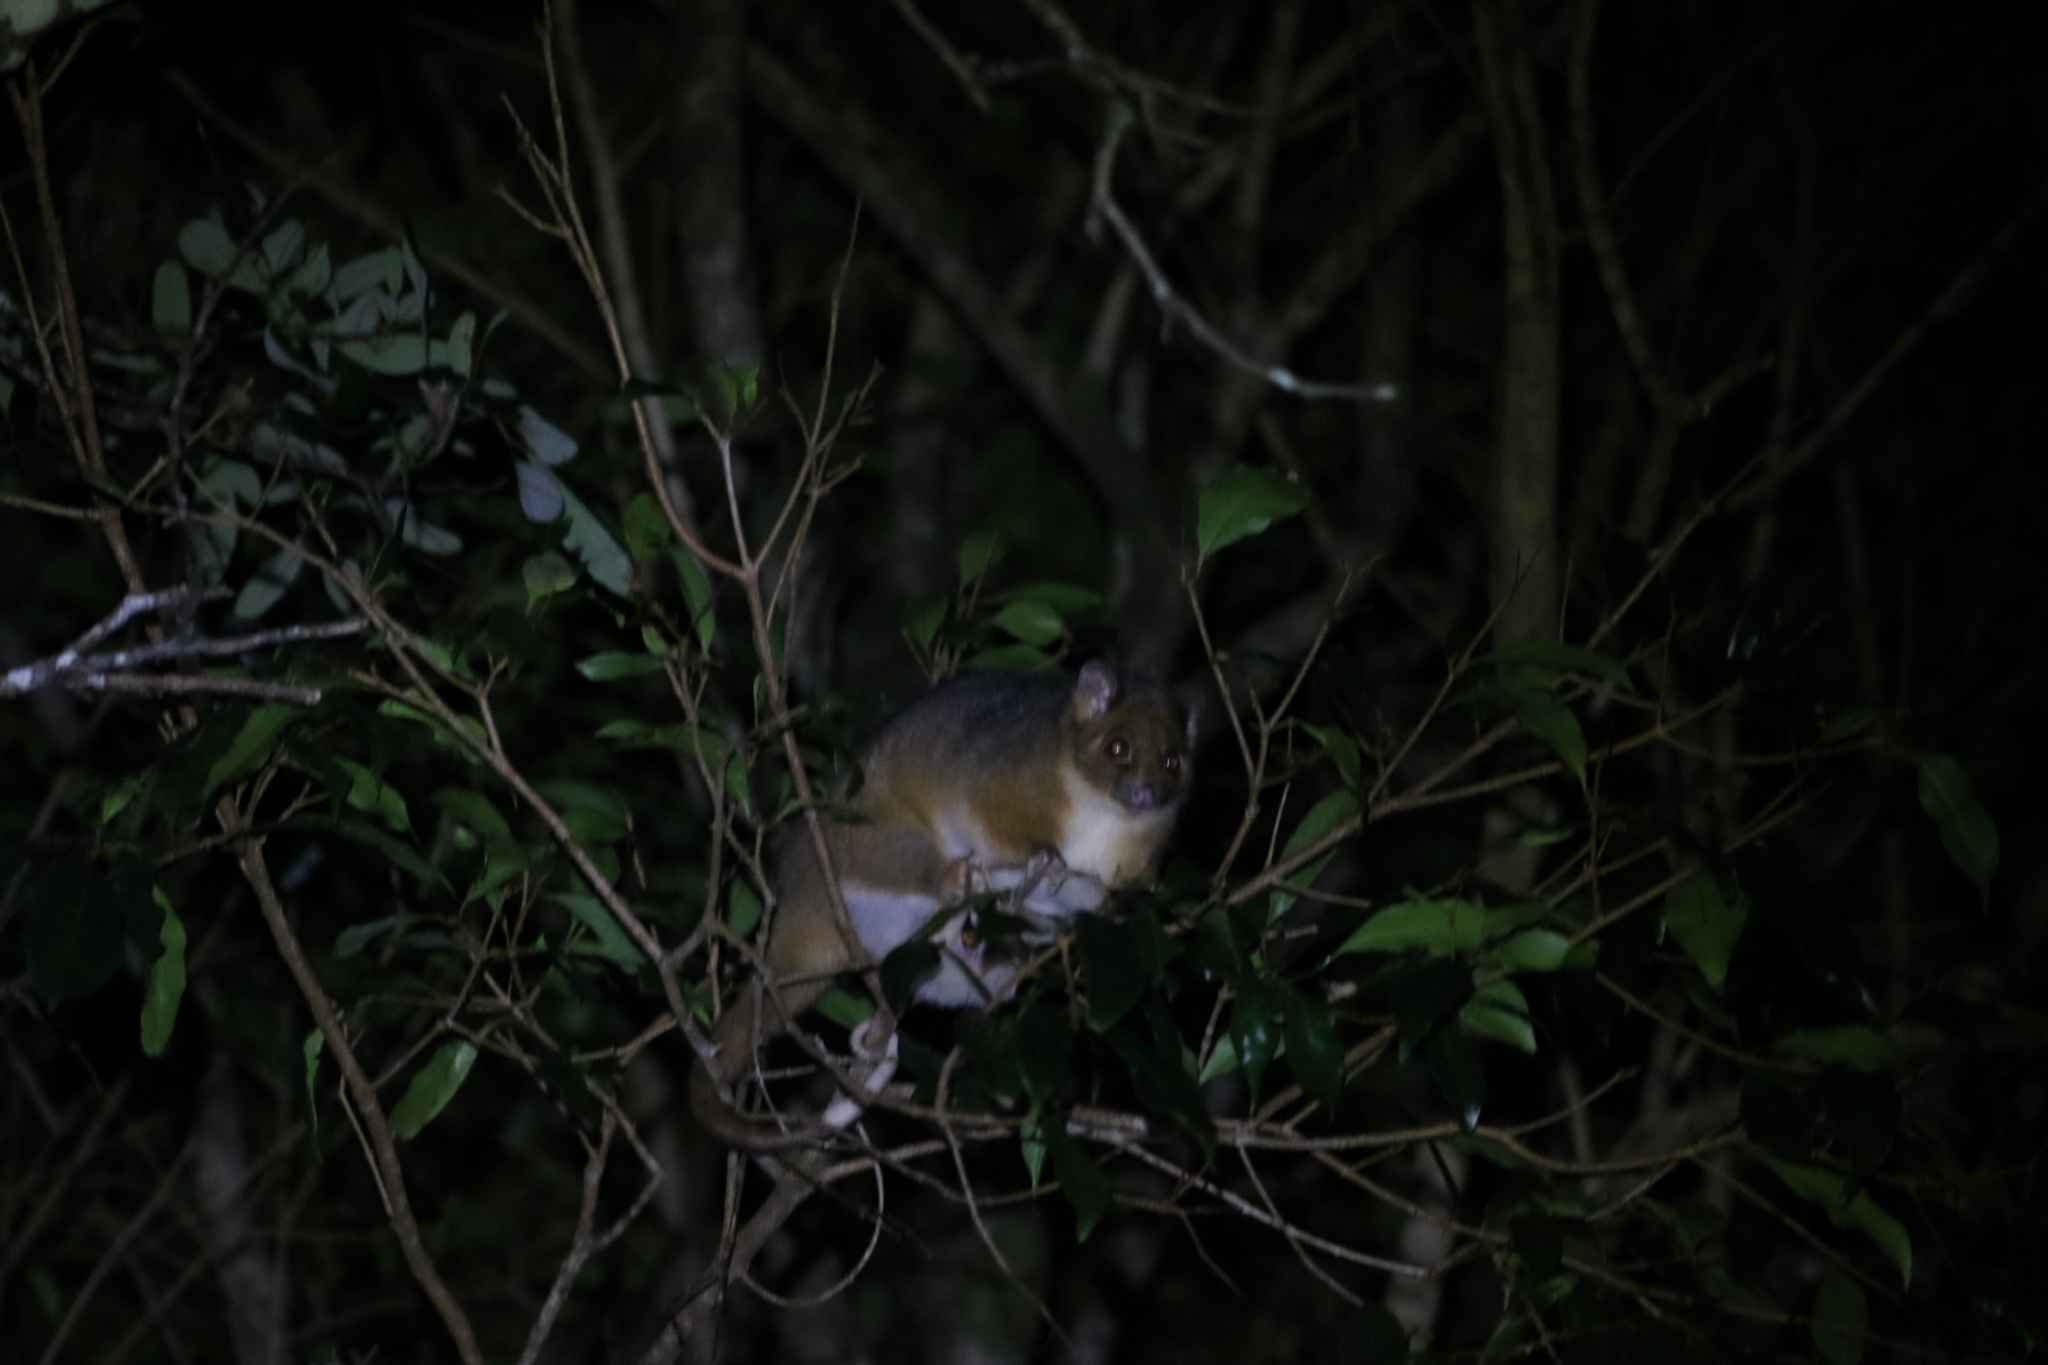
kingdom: Animalia
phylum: Chordata
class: Mammalia
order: Diprotodontia
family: Pseudocheiridae
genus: Pseudocheirus
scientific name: Pseudocheirus peregrinus
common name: Common ringtail possum
